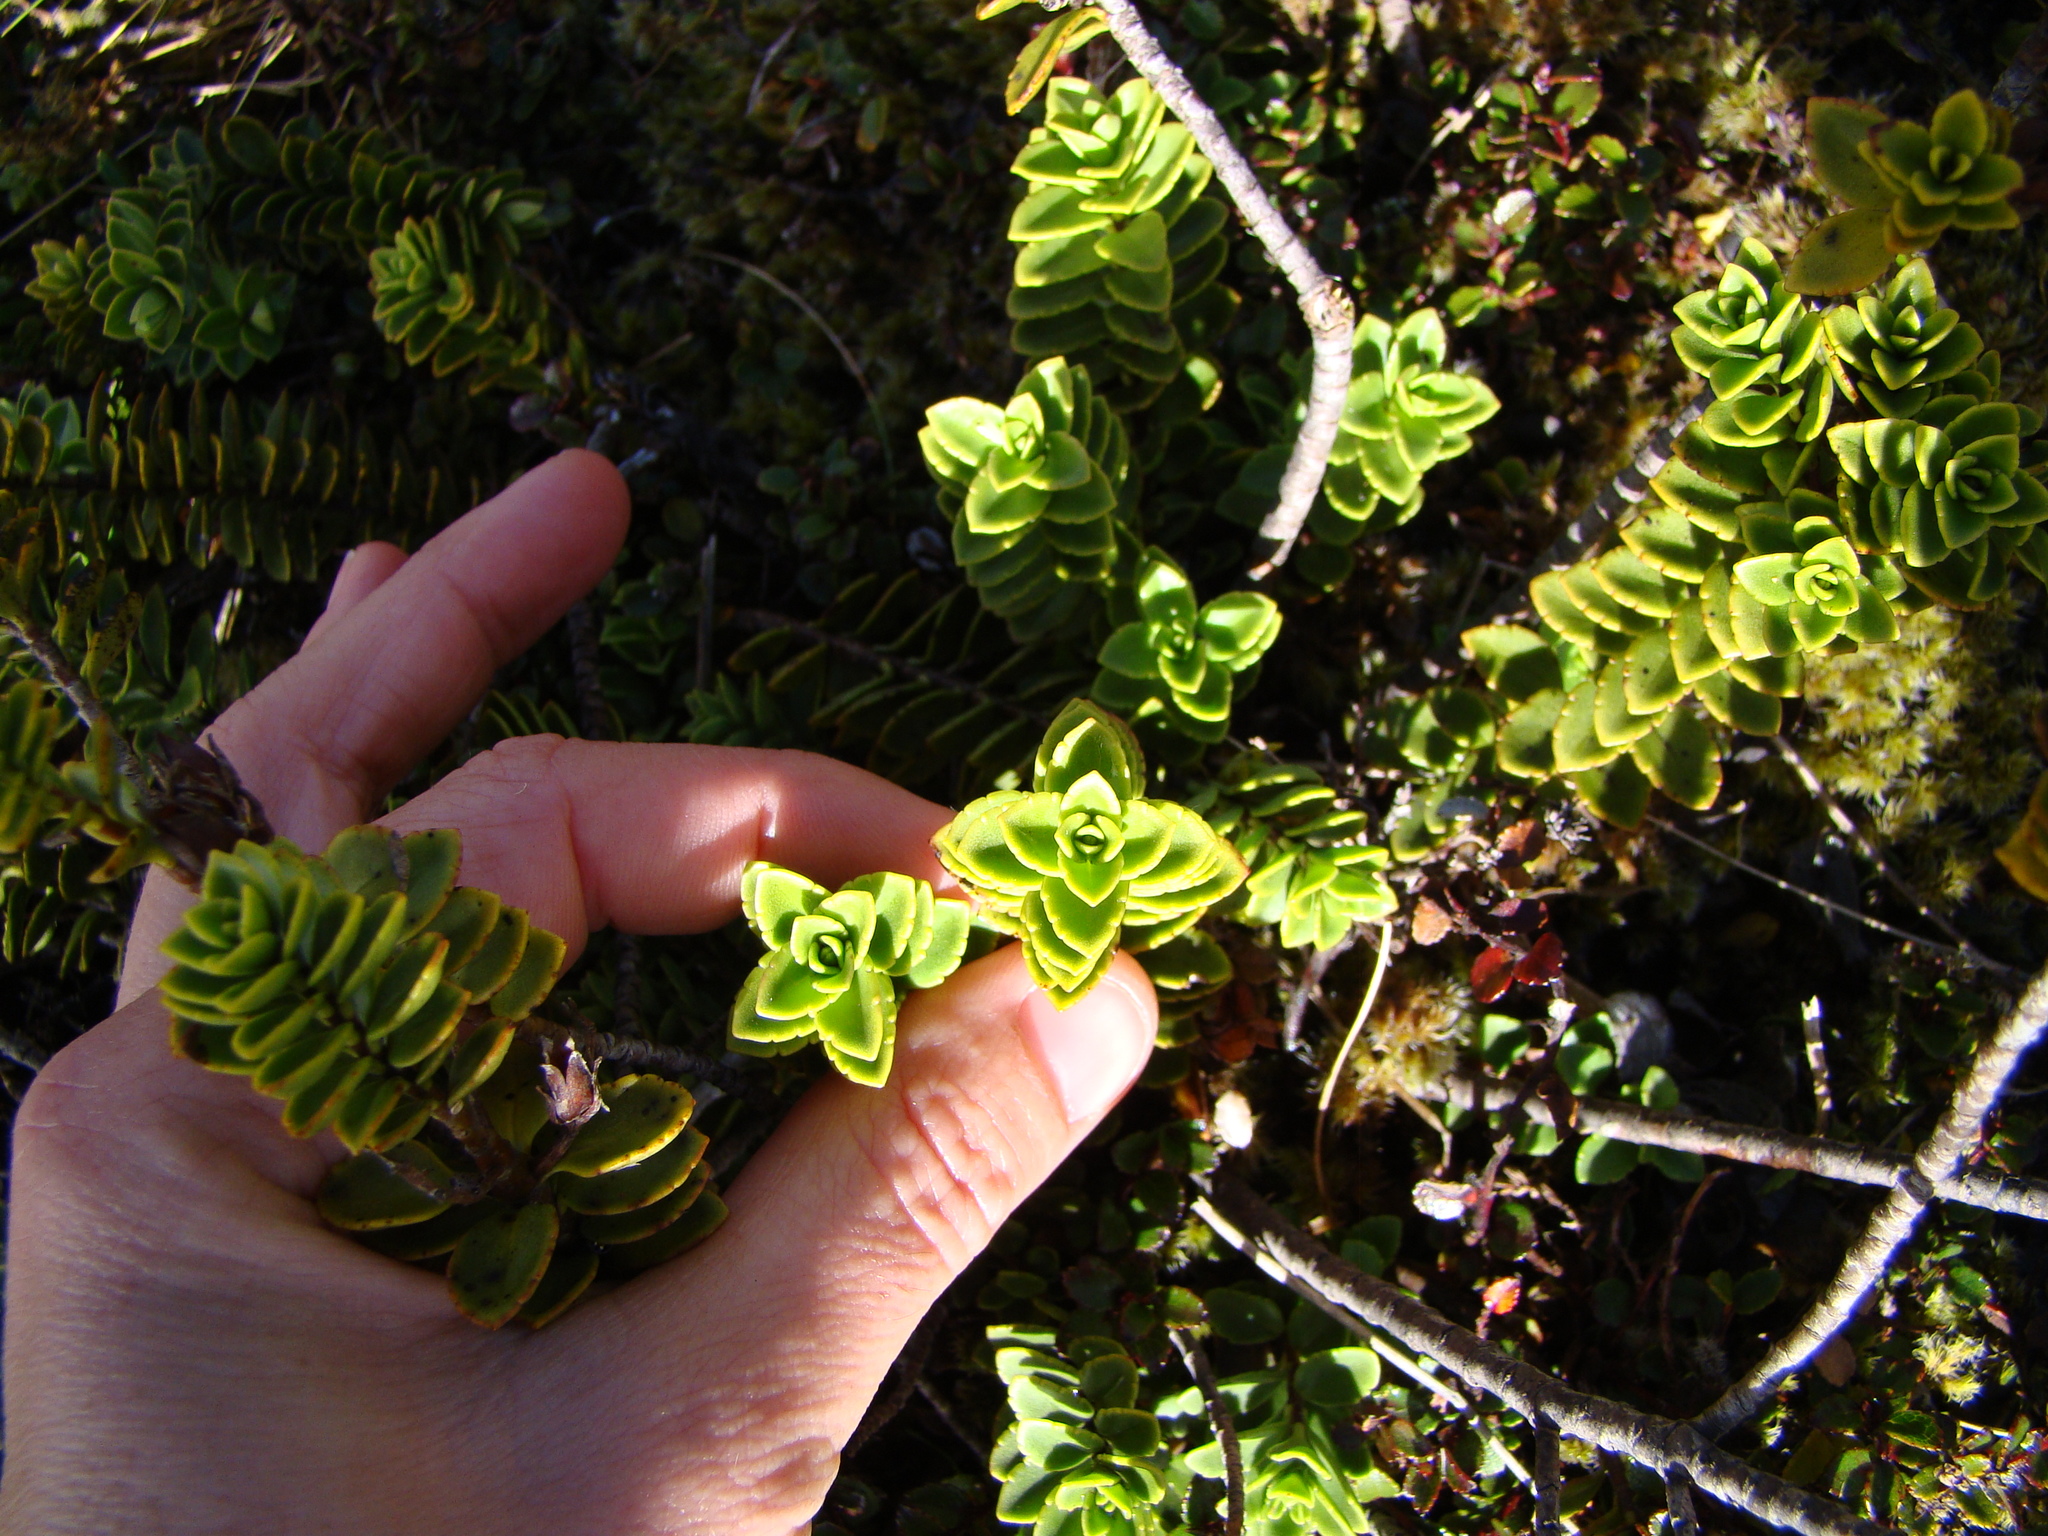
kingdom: Plantae
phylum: Tracheophyta
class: Magnoliopsida
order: Lamiales
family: Plantaginaceae
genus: Veronica
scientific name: Veronica macrantha
